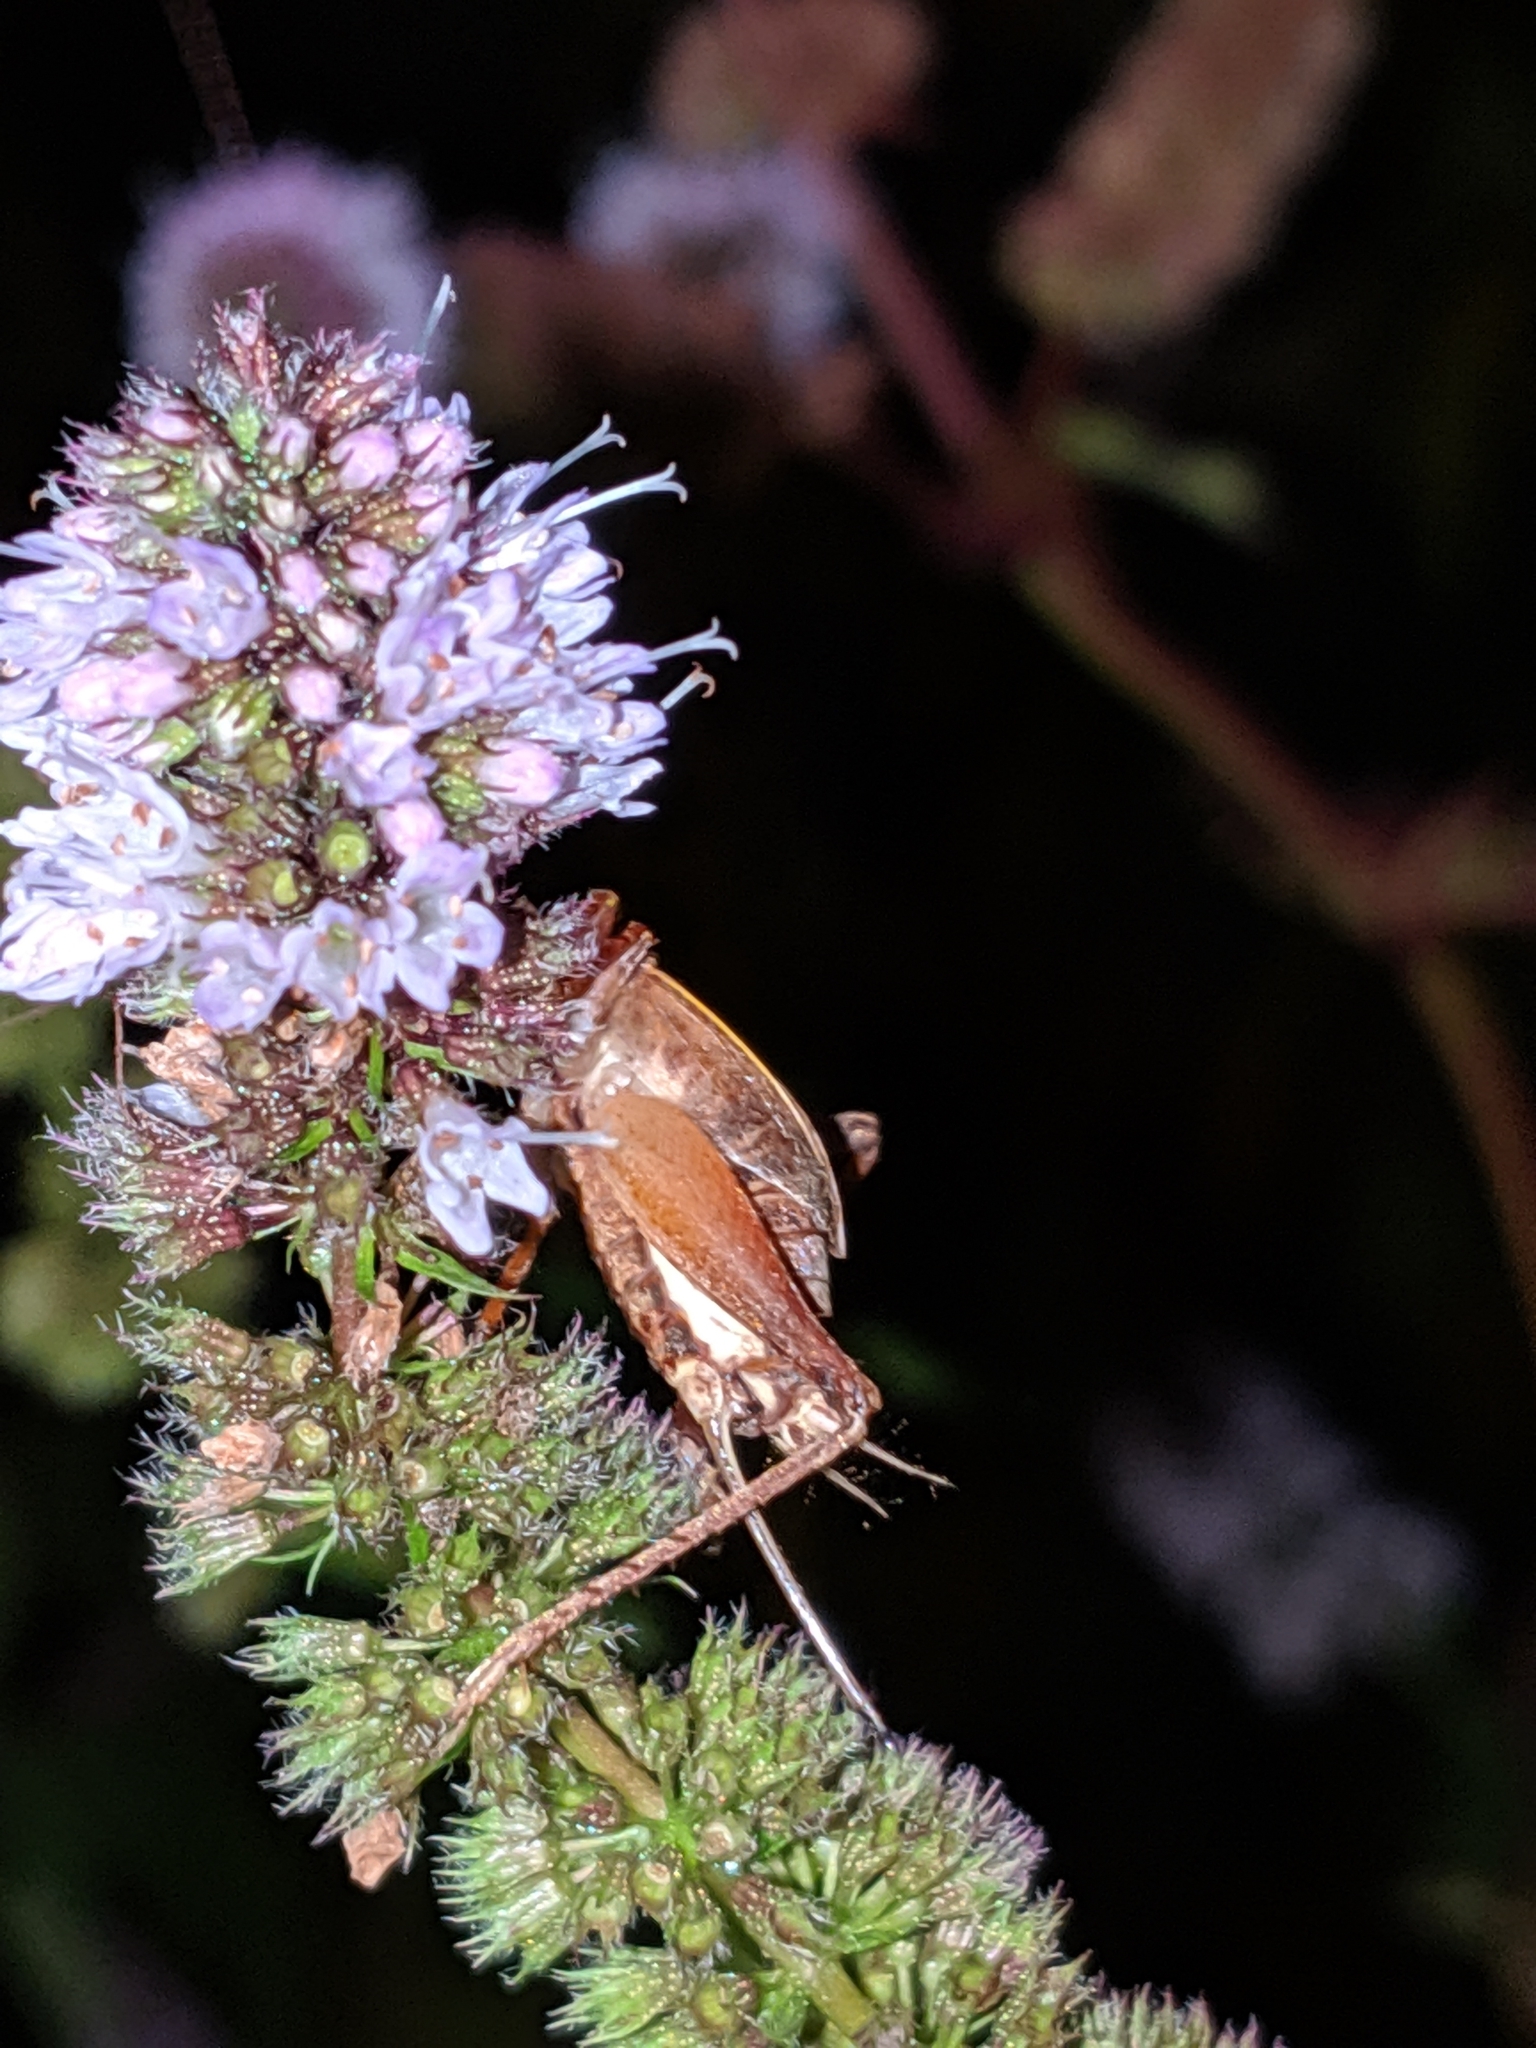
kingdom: Animalia
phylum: Arthropoda
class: Insecta
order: Orthoptera
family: Gryllidae
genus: Hapithus
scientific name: Hapithus agitator
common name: Restless bush cricket
